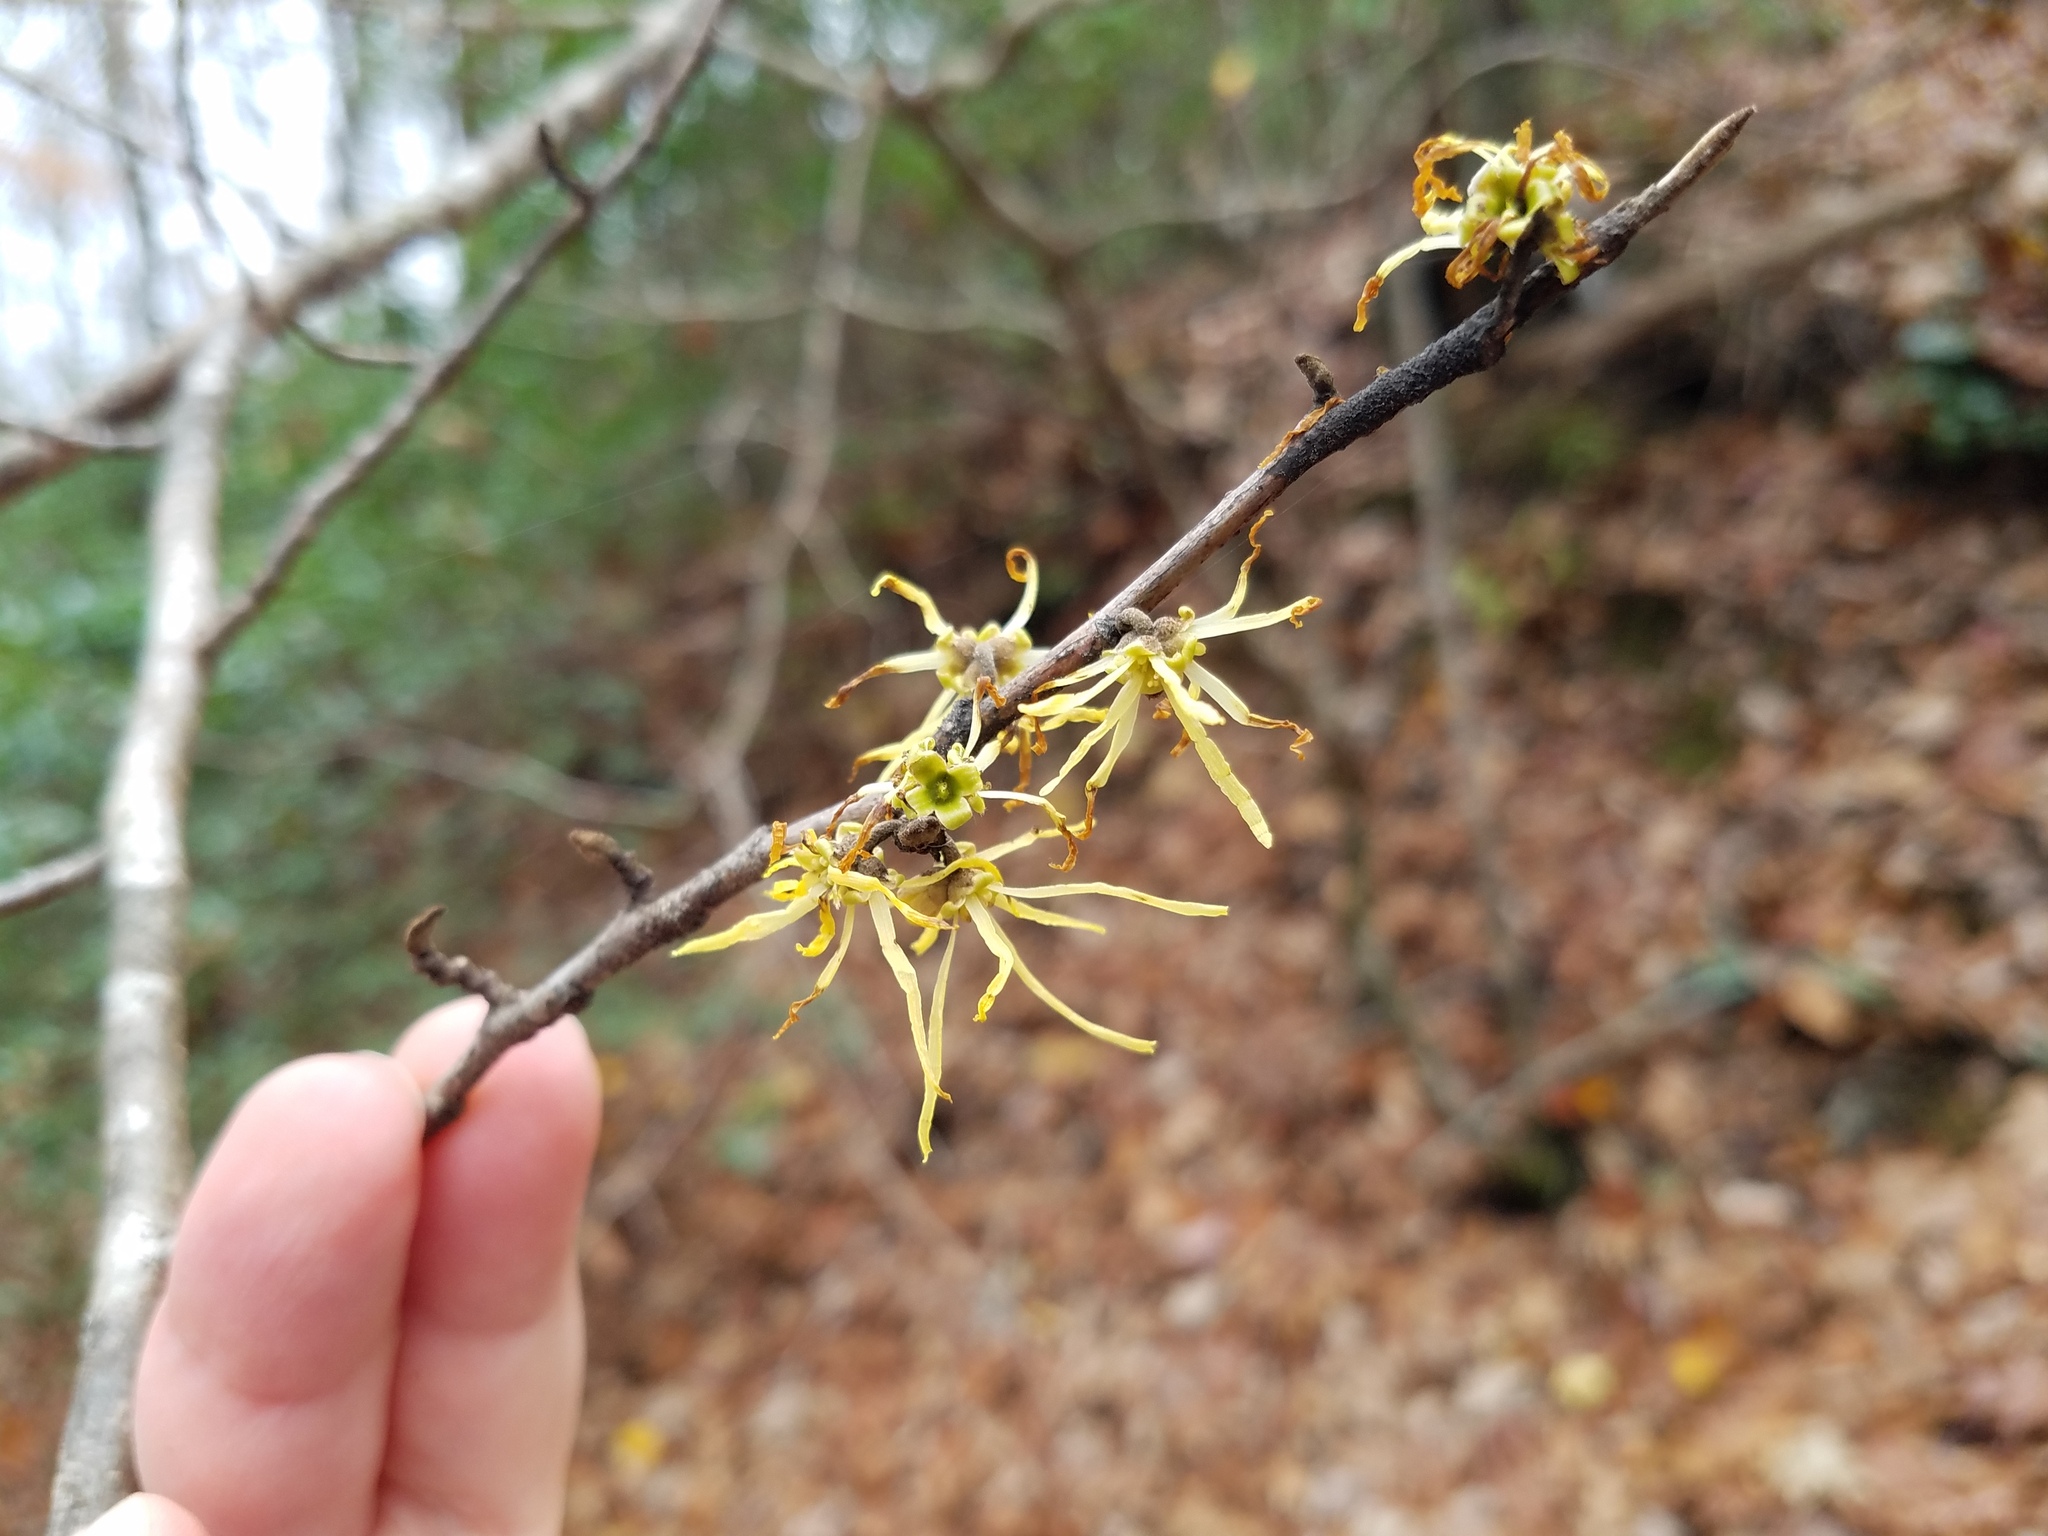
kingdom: Plantae
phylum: Tracheophyta
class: Magnoliopsida
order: Saxifragales
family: Hamamelidaceae
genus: Hamamelis
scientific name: Hamamelis virginiana
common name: Witch-hazel
